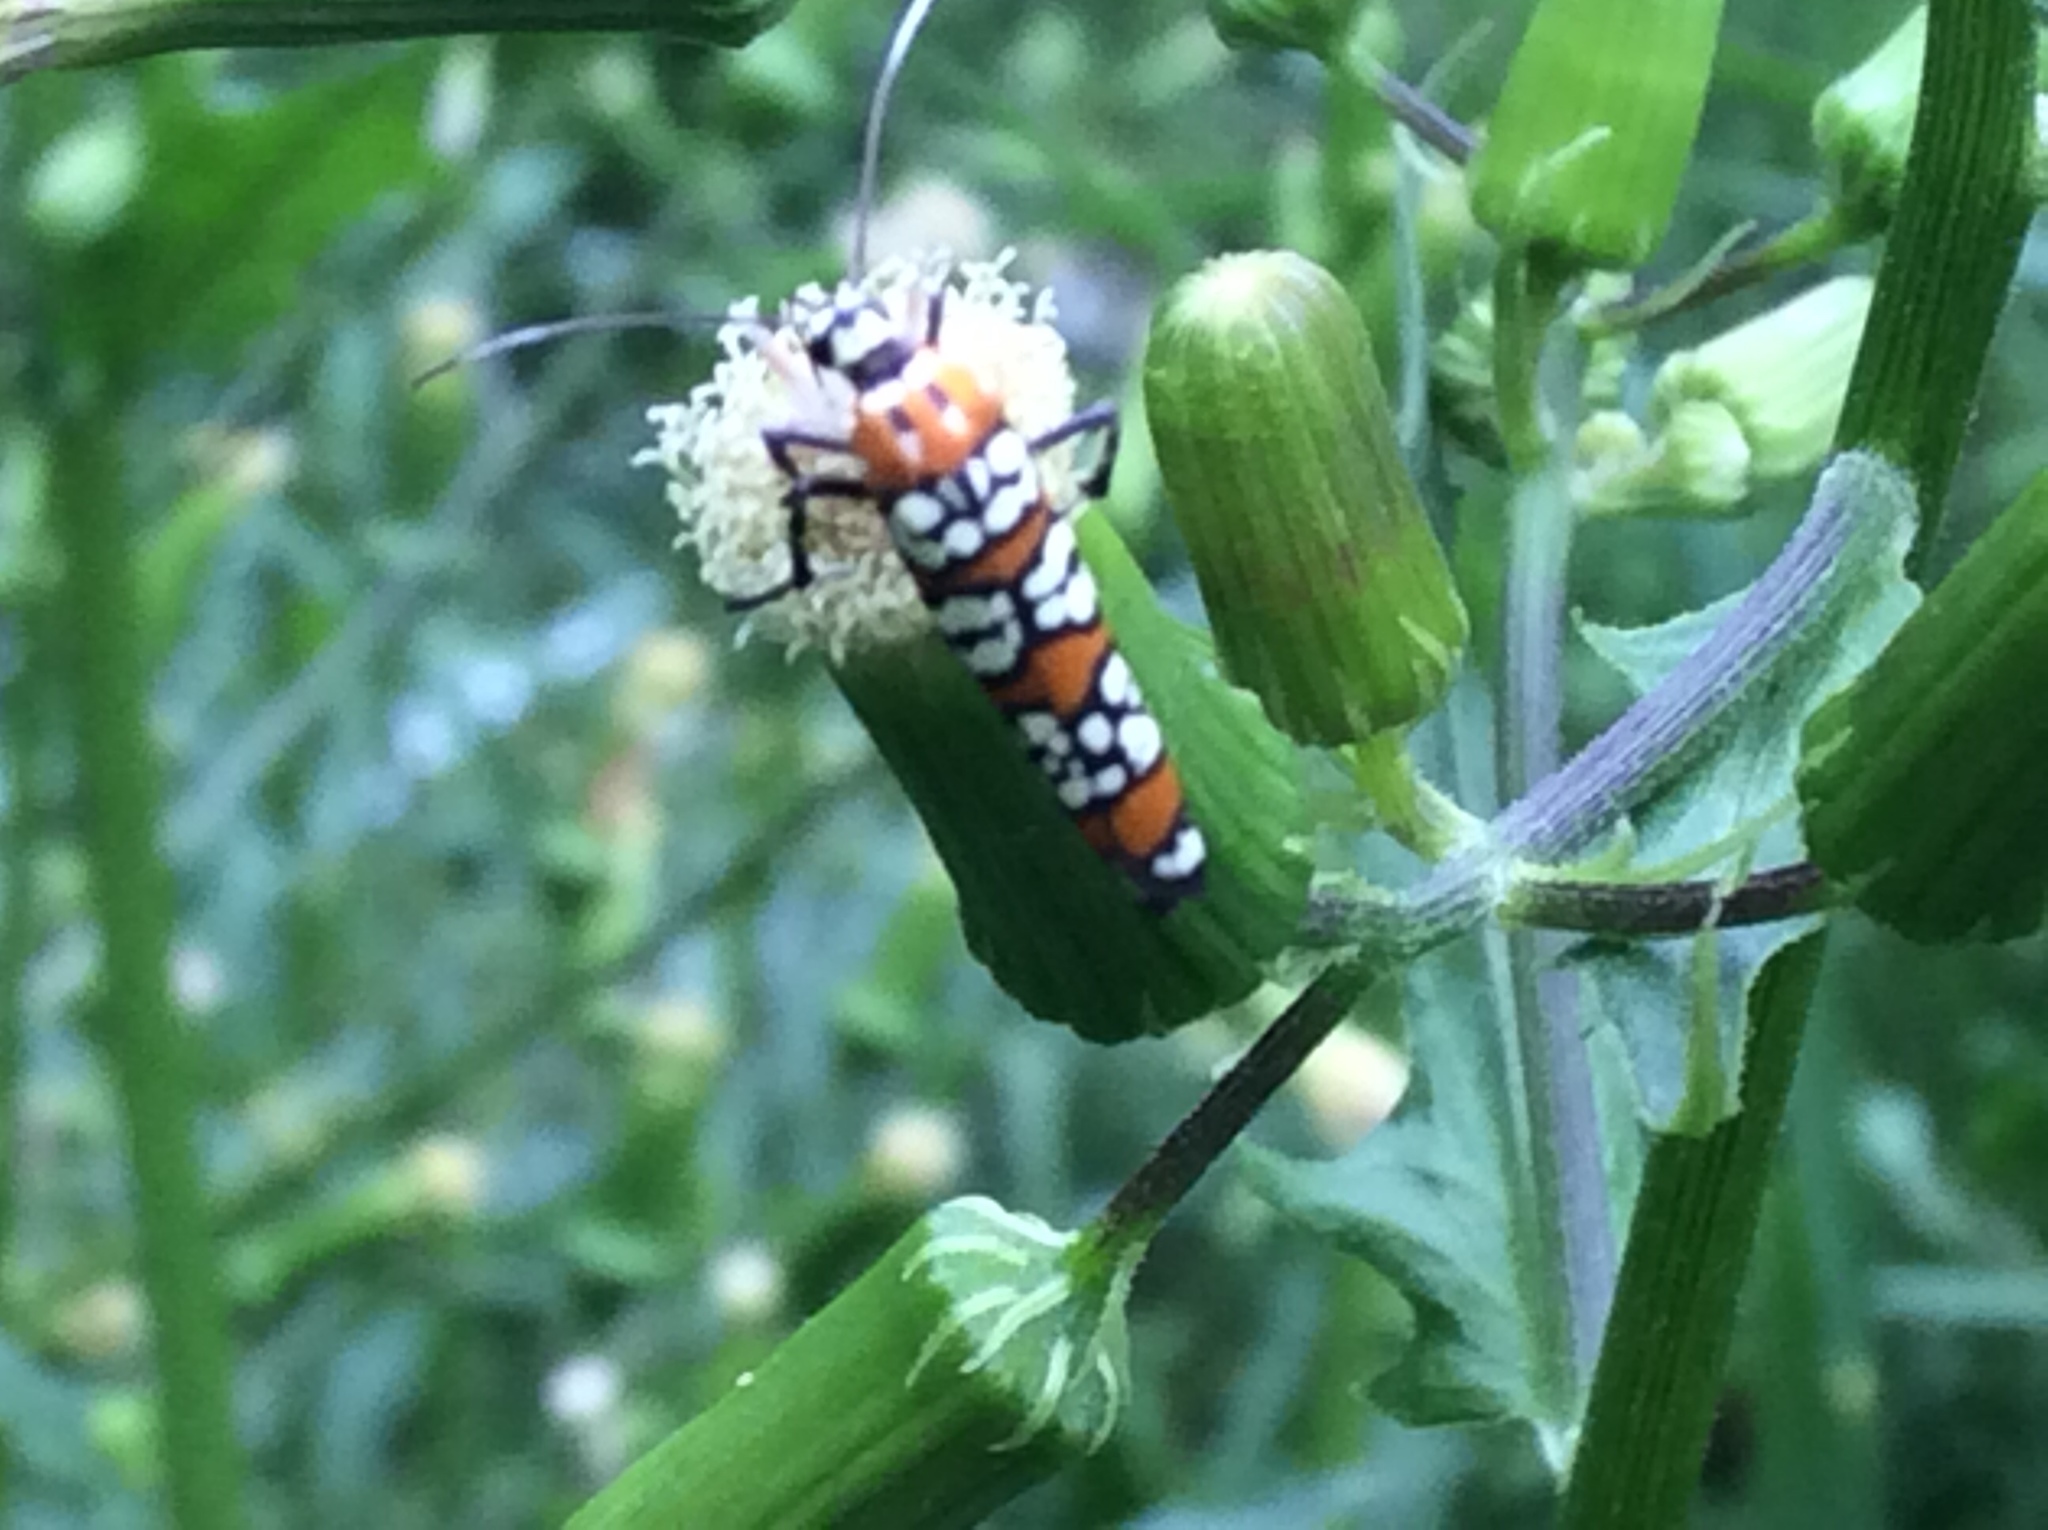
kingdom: Animalia
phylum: Arthropoda
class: Insecta
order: Lepidoptera
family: Attevidae
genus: Atteva
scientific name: Atteva punctella
